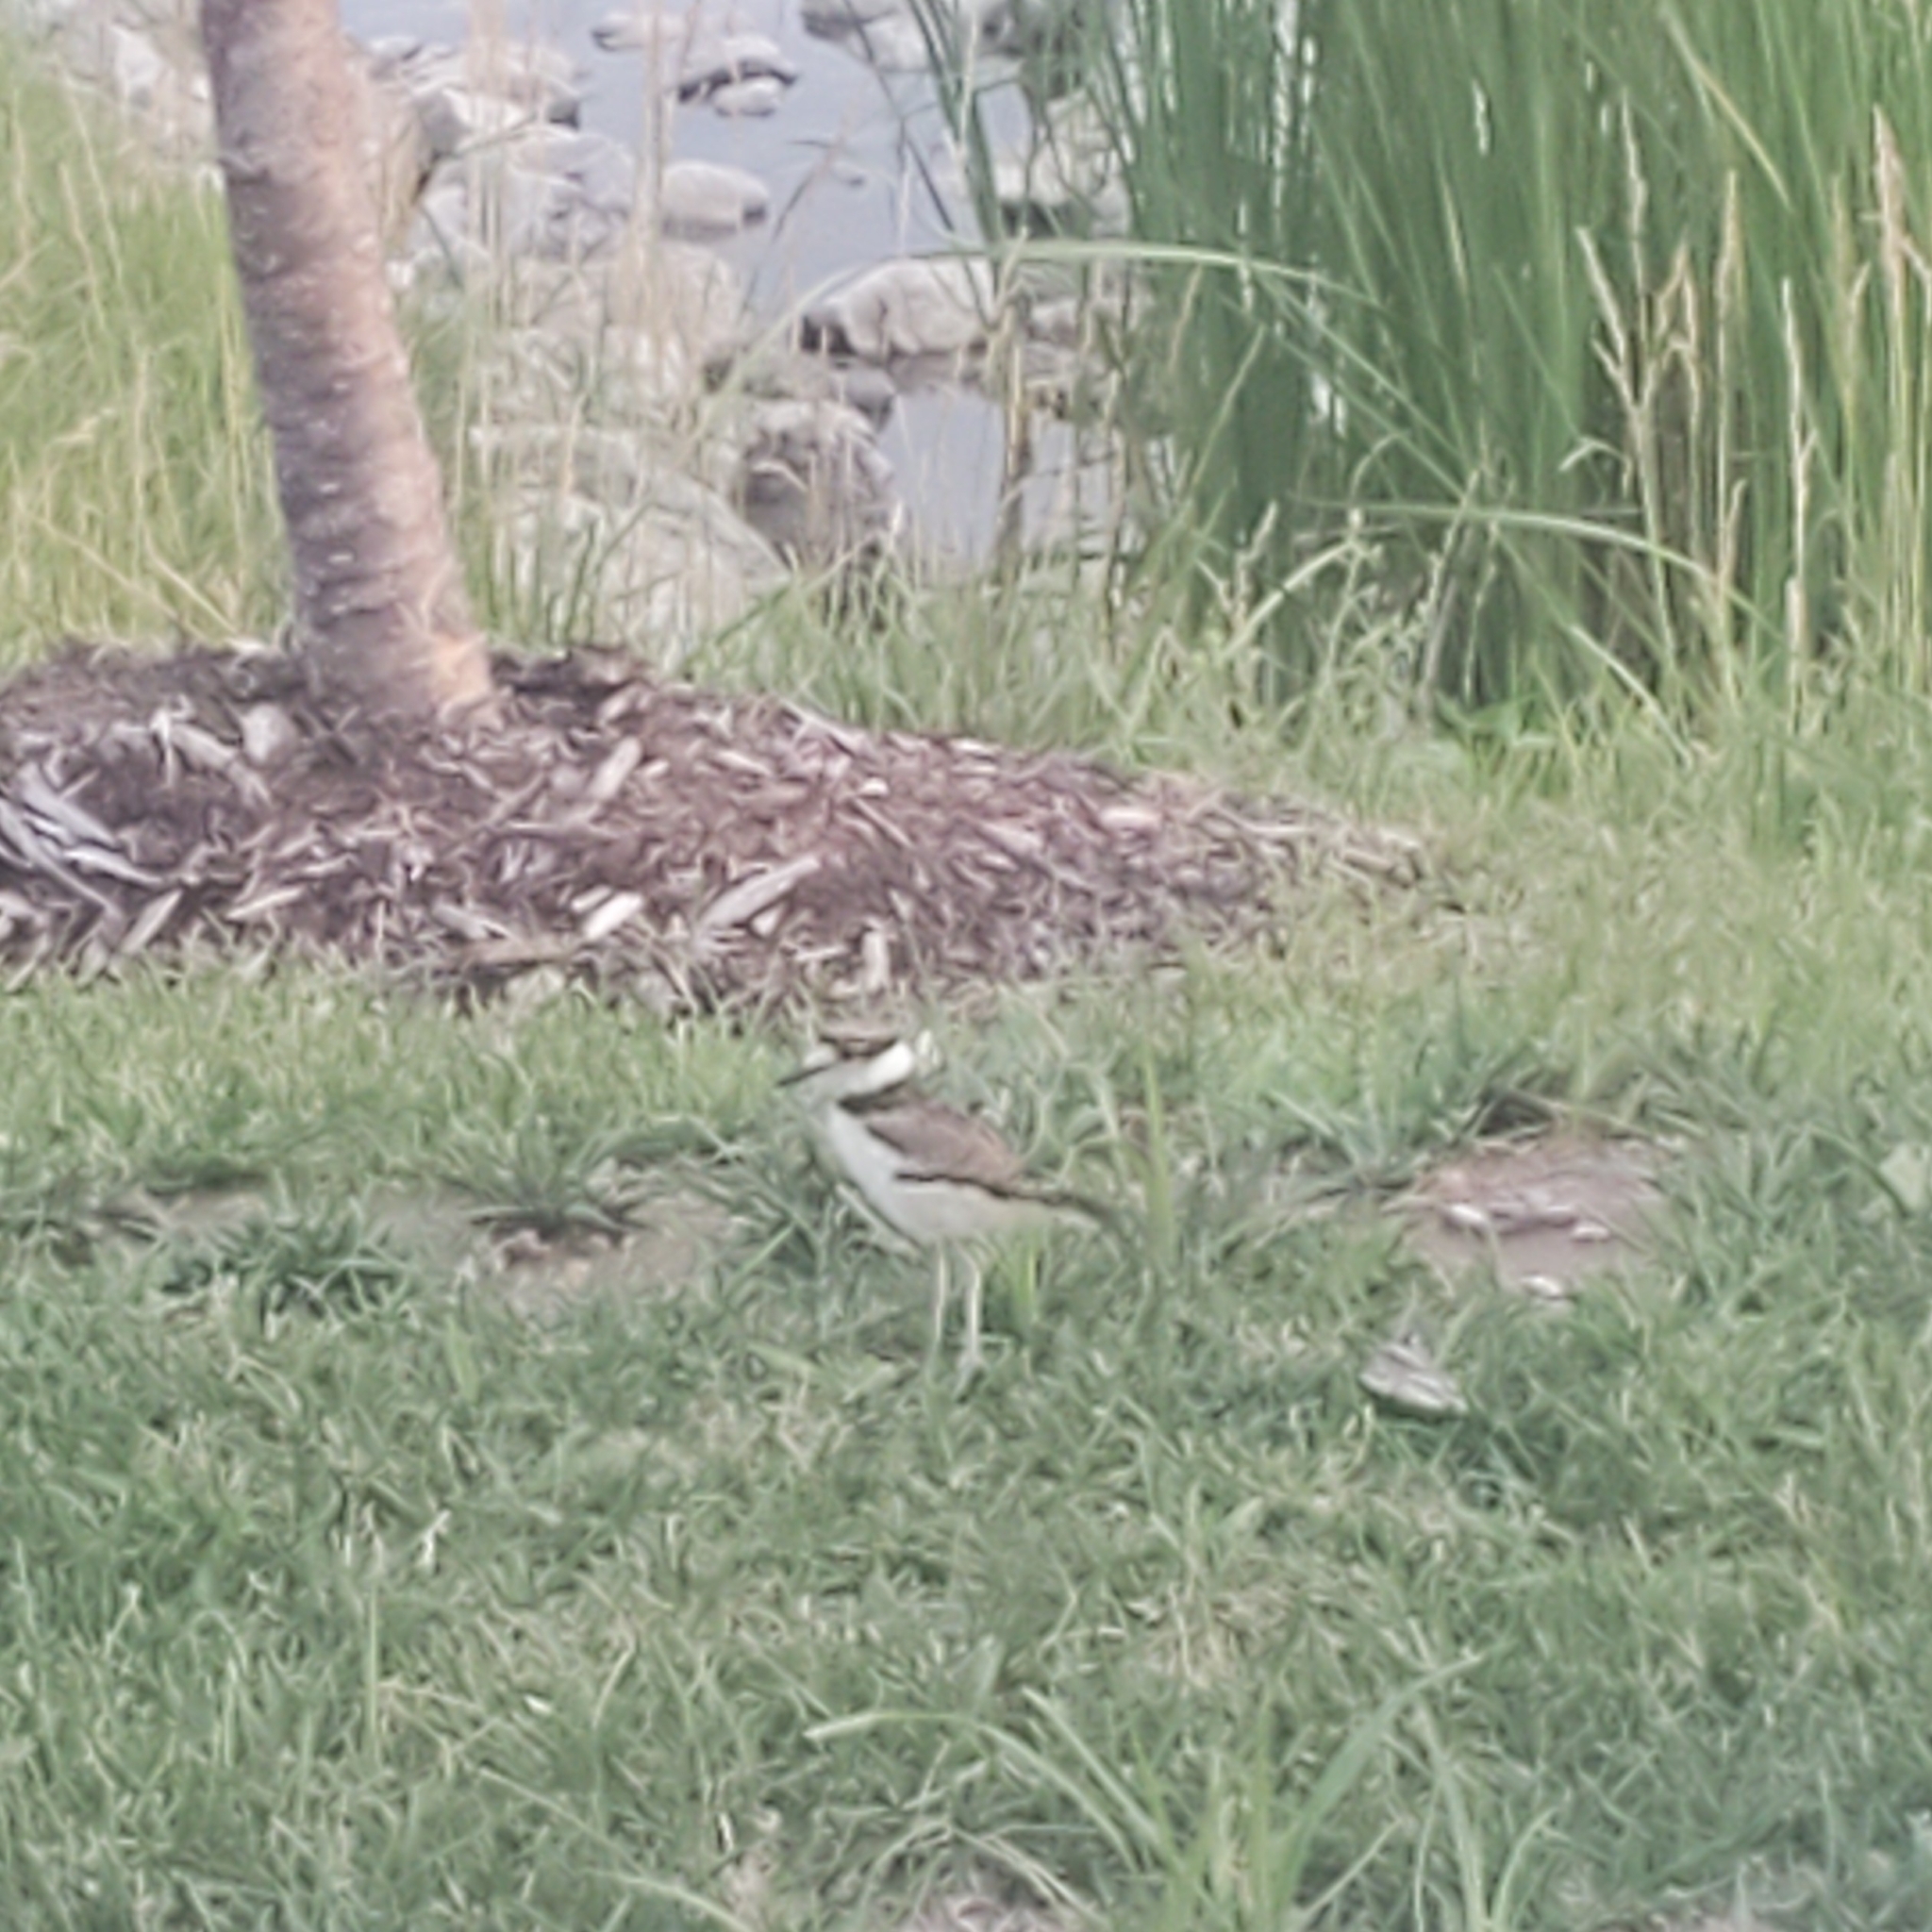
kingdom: Animalia
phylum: Chordata
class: Aves
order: Charadriiformes
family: Charadriidae
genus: Charadrius
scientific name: Charadrius vociferus
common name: Killdeer
